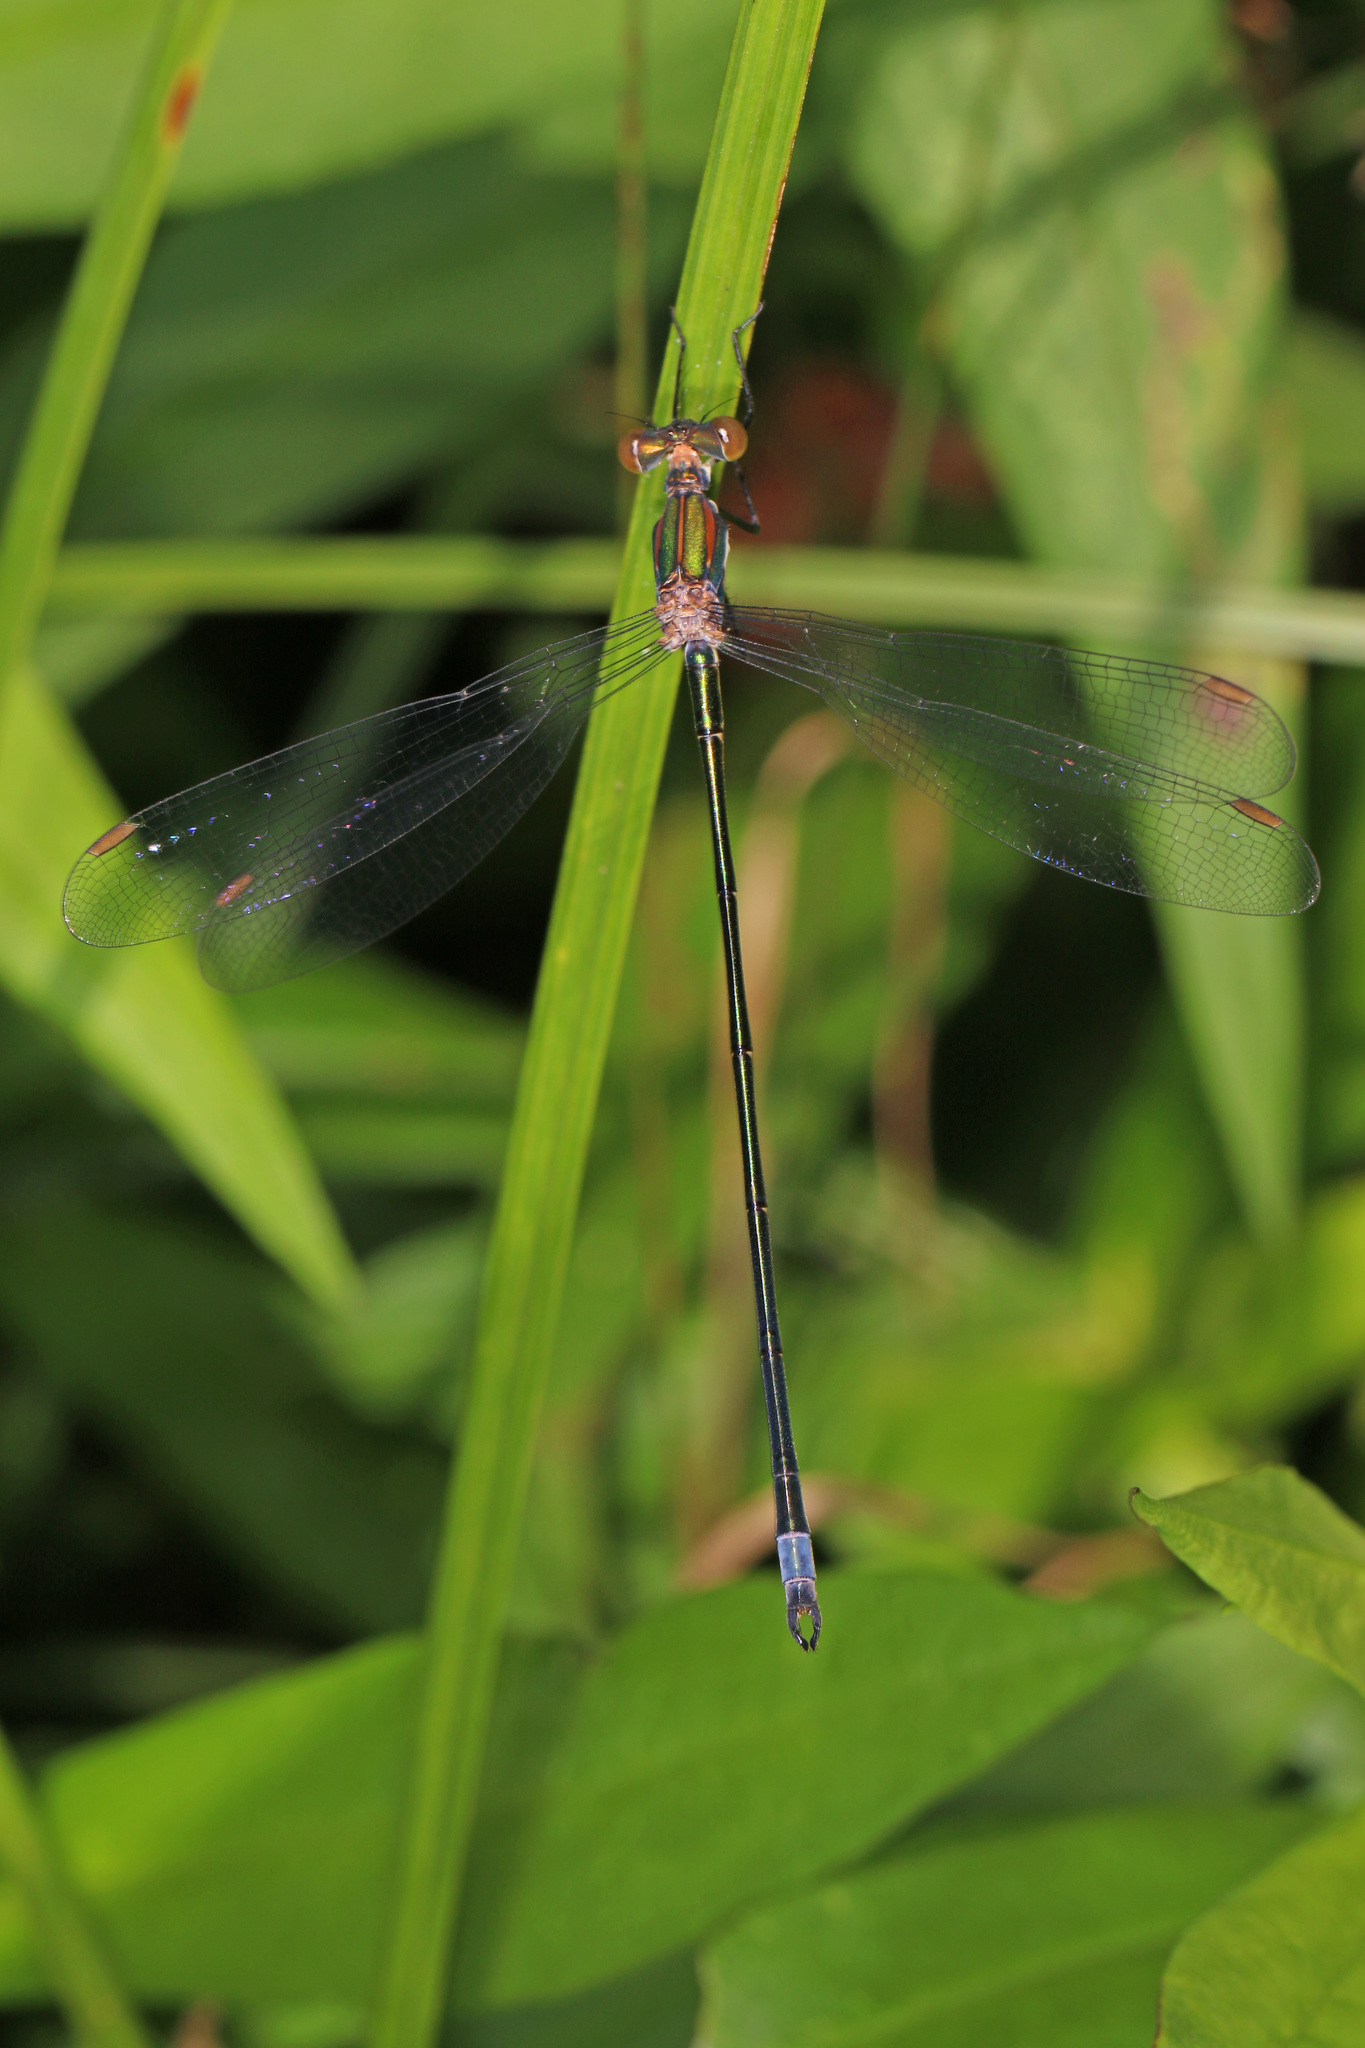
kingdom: Animalia
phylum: Arthropoda
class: Insecta
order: Odonata
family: Lestidae
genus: Lestes
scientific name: Lestes vigilax
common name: Swamp spreadwing
